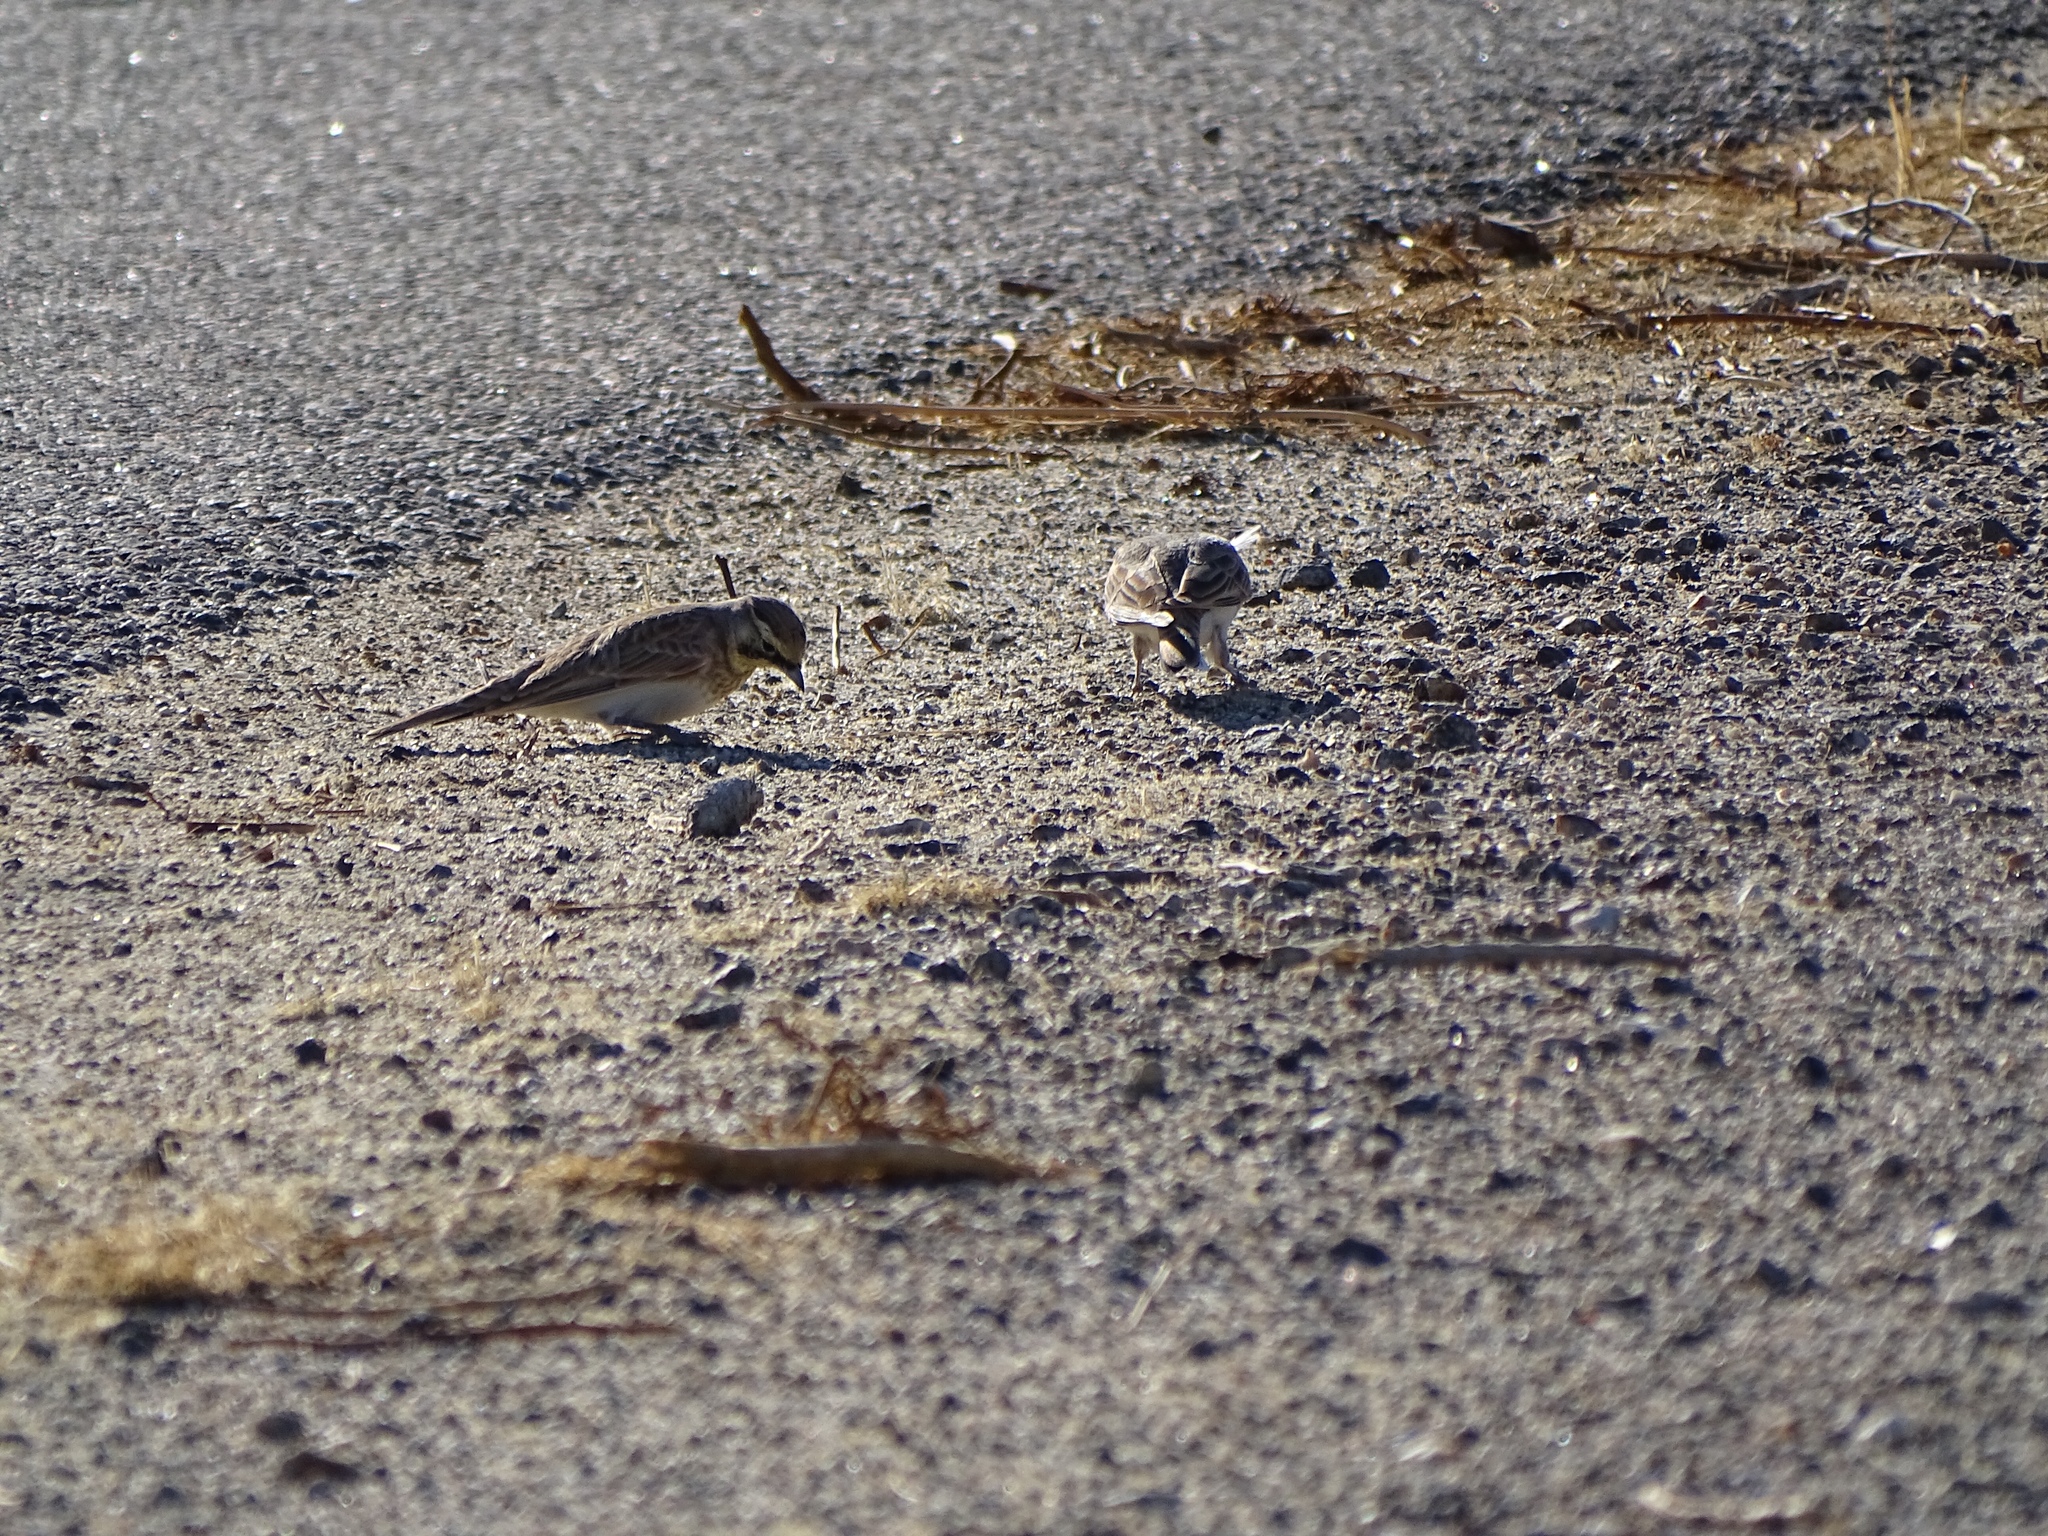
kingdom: Animalia
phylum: Chordata
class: Aves
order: Passeriformes
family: Alaudidae
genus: Eremophila
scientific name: Eremophila alpestris
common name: Horned lark
